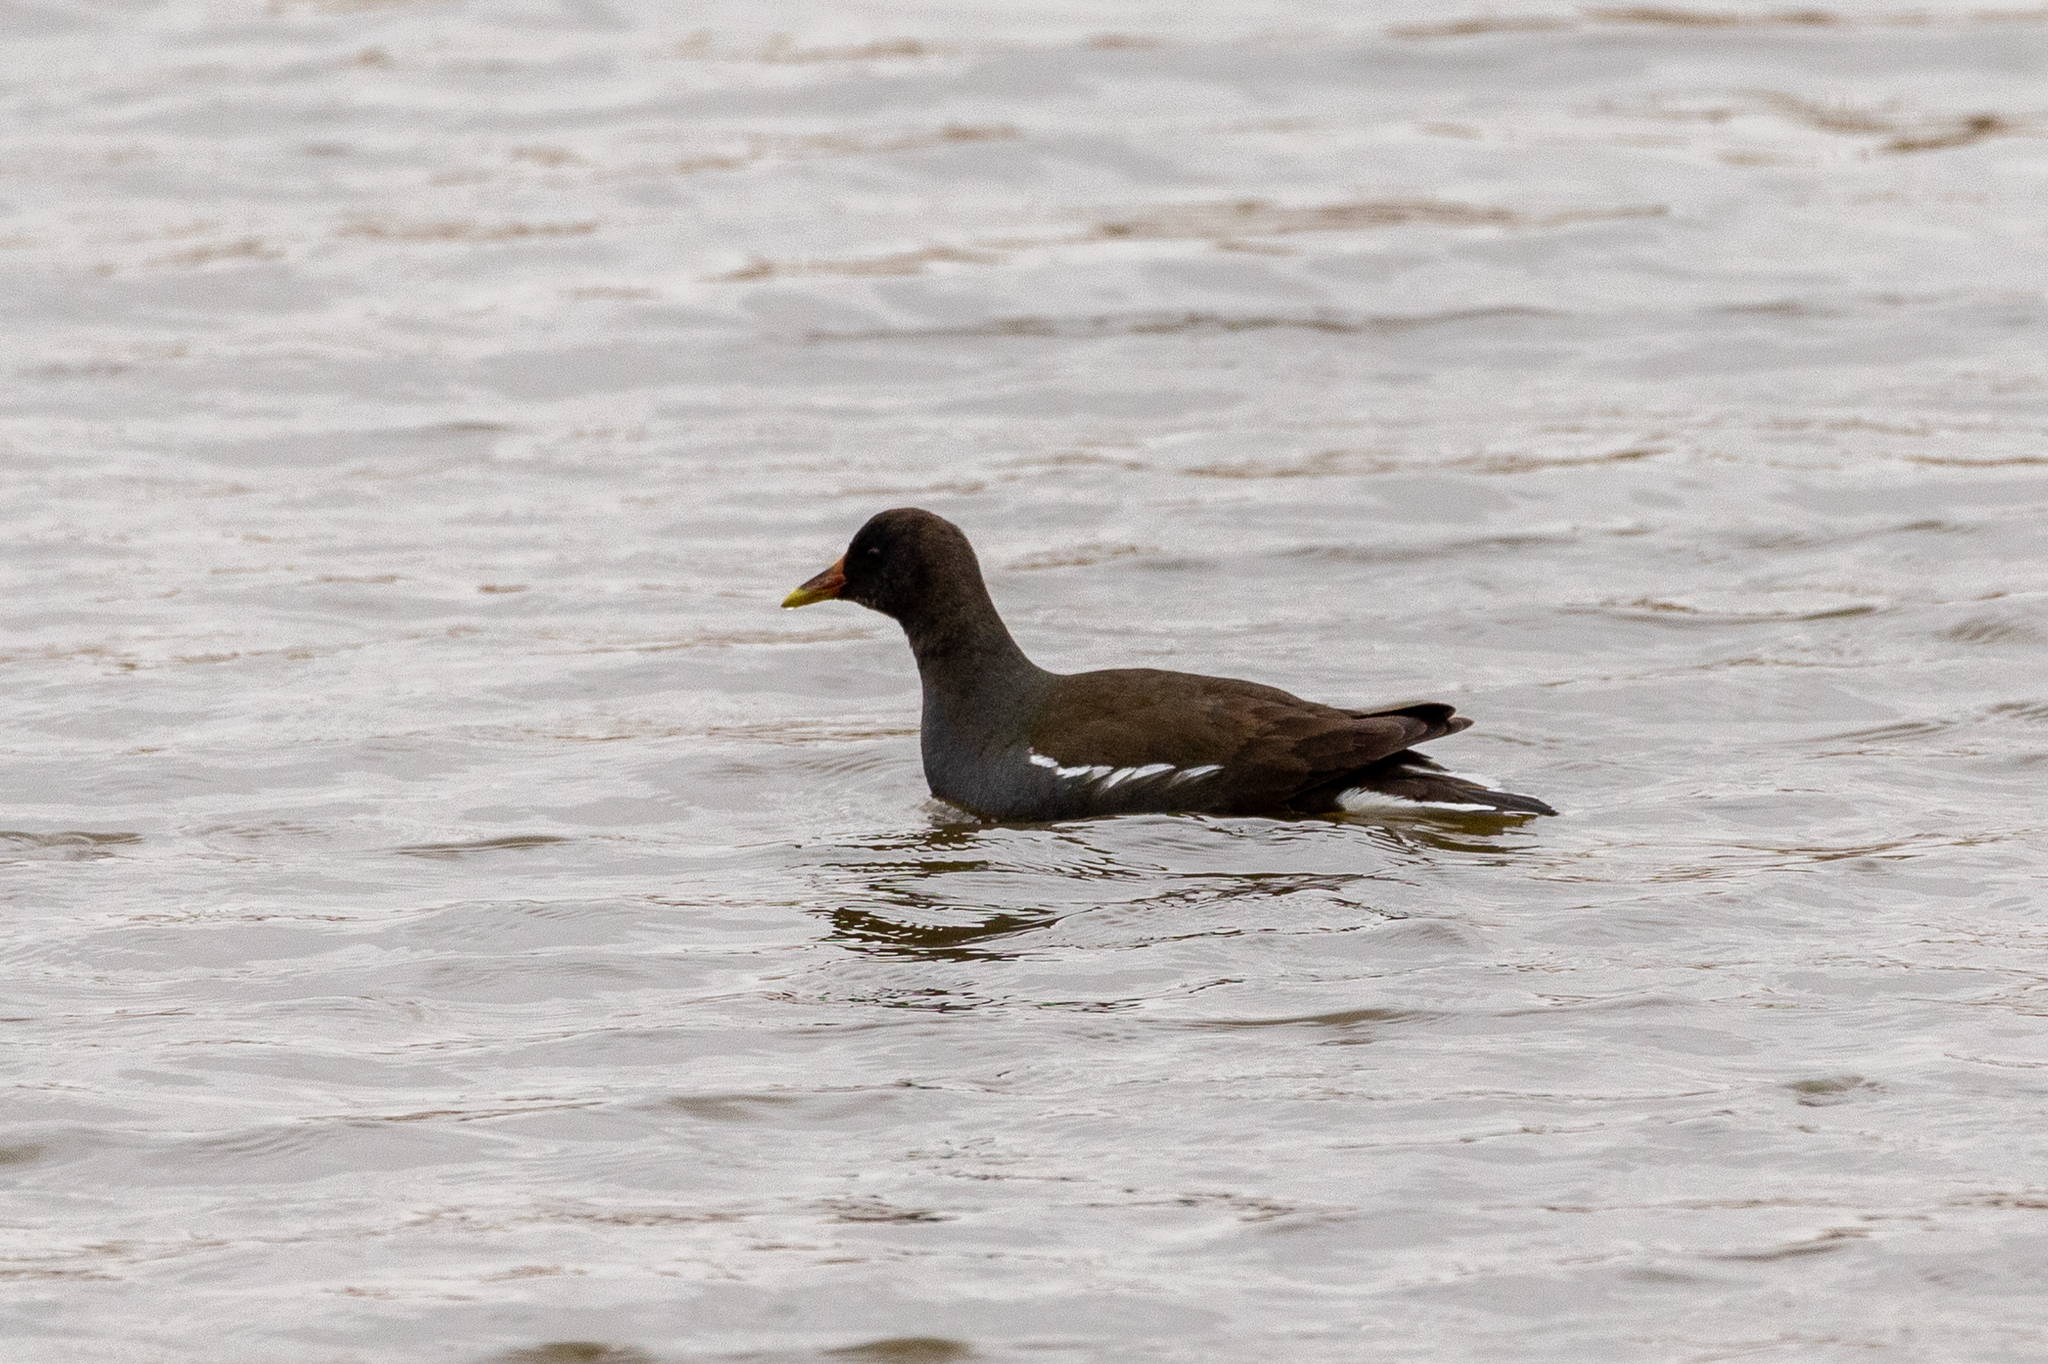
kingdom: Animalia
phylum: Chordata
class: Aves
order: Gruiformes
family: Rallidae
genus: Gallinula
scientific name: Gallinula chloropus
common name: Common moorhen
